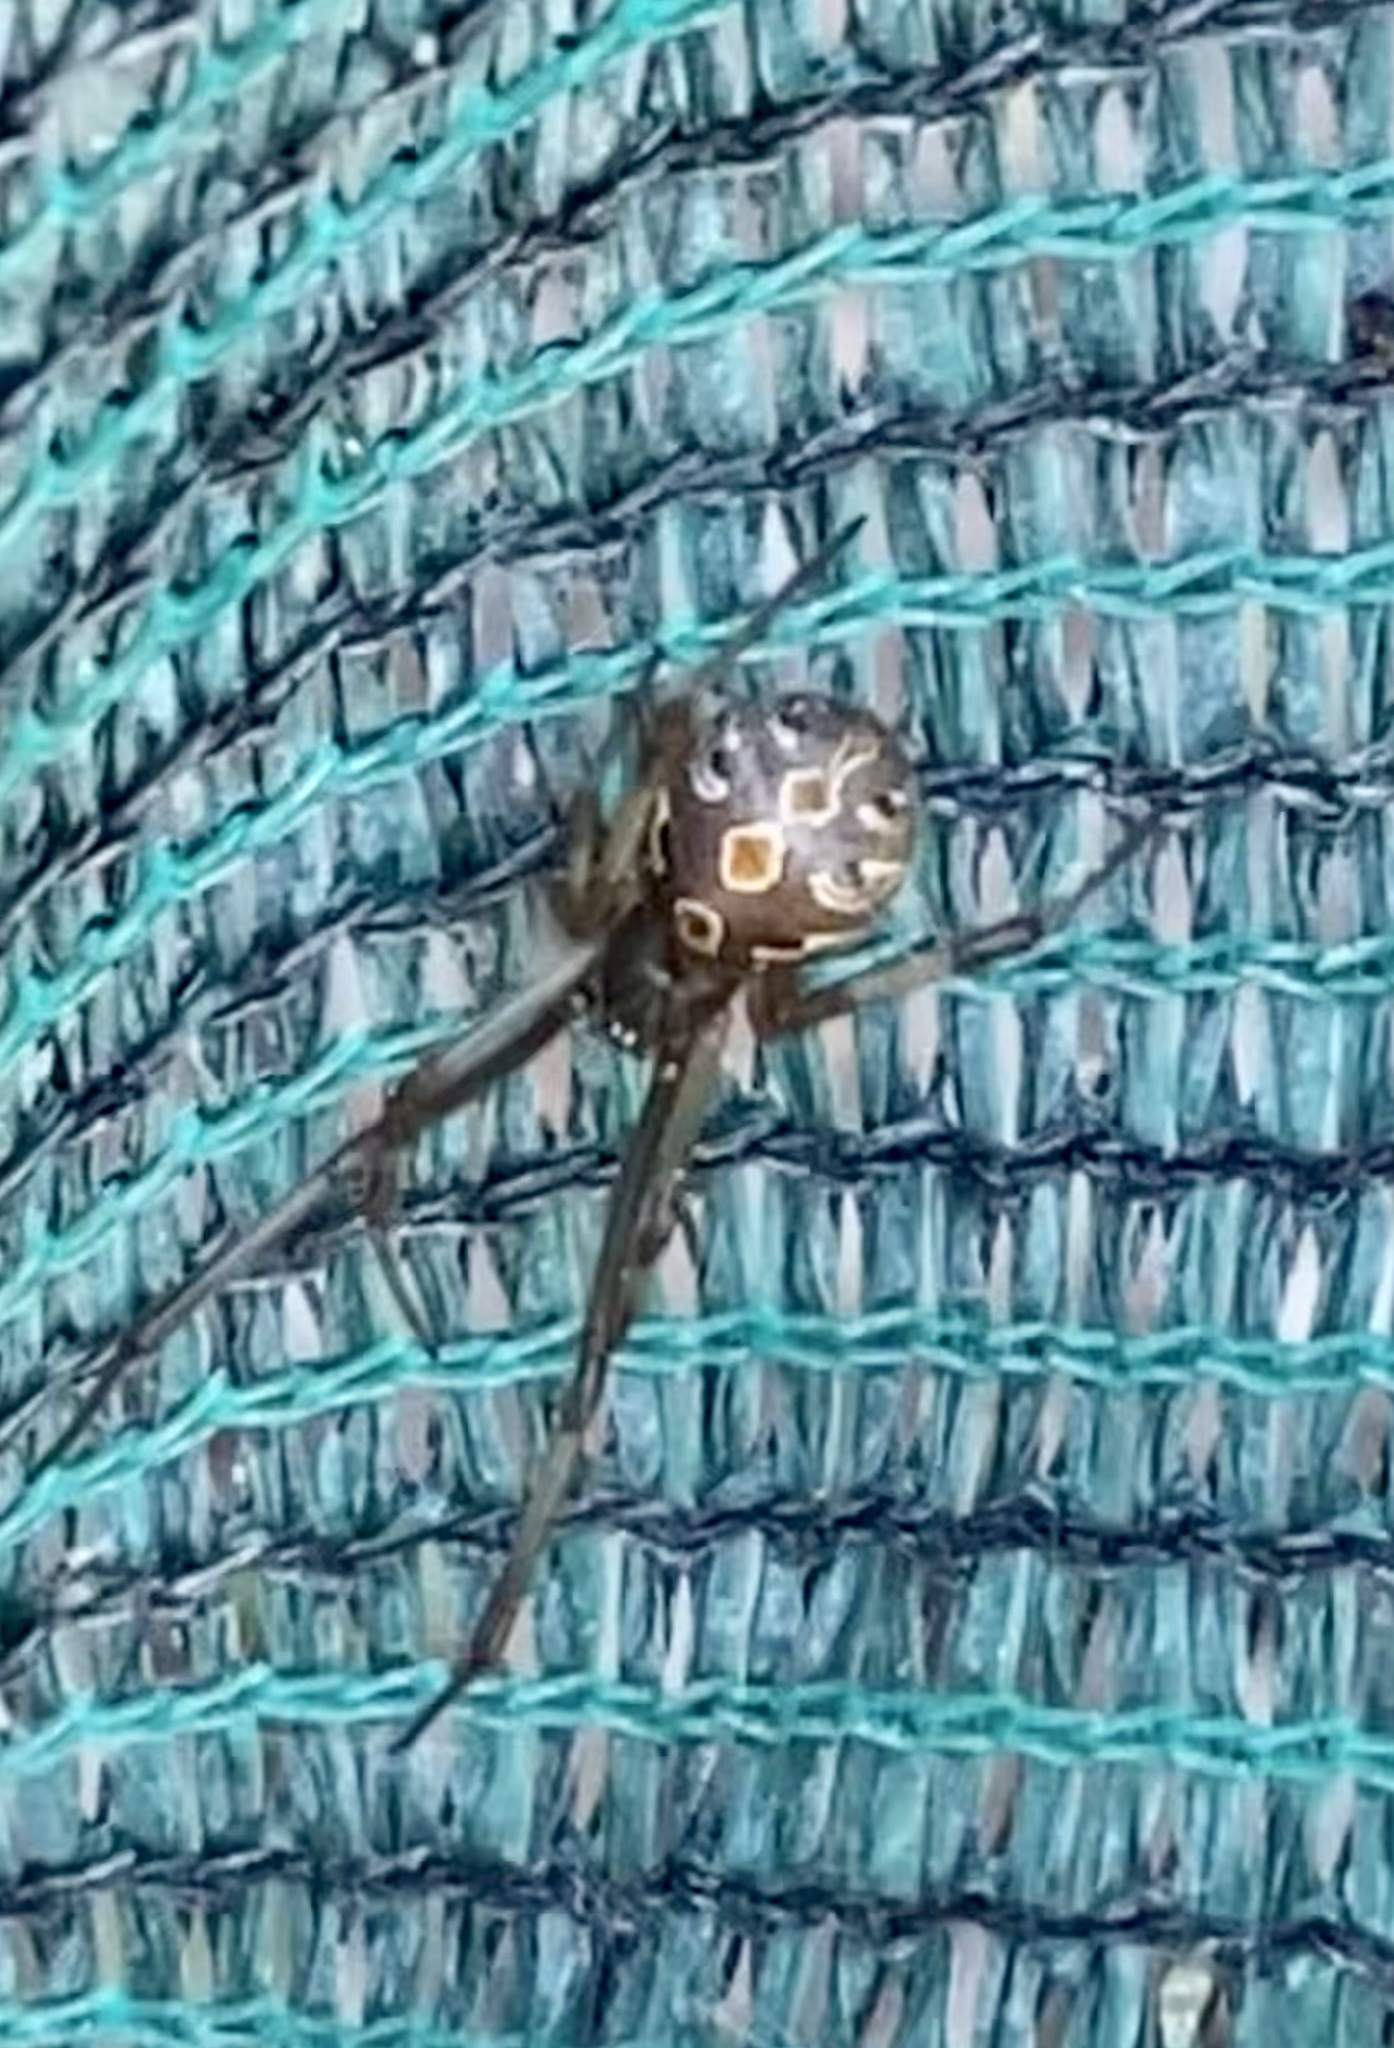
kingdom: Animalia
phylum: Arthropoda
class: Arachnida
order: Araneae
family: Theridiidae
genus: Latrodectus
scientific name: Latrodectus geometricus
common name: Brown widow spider
